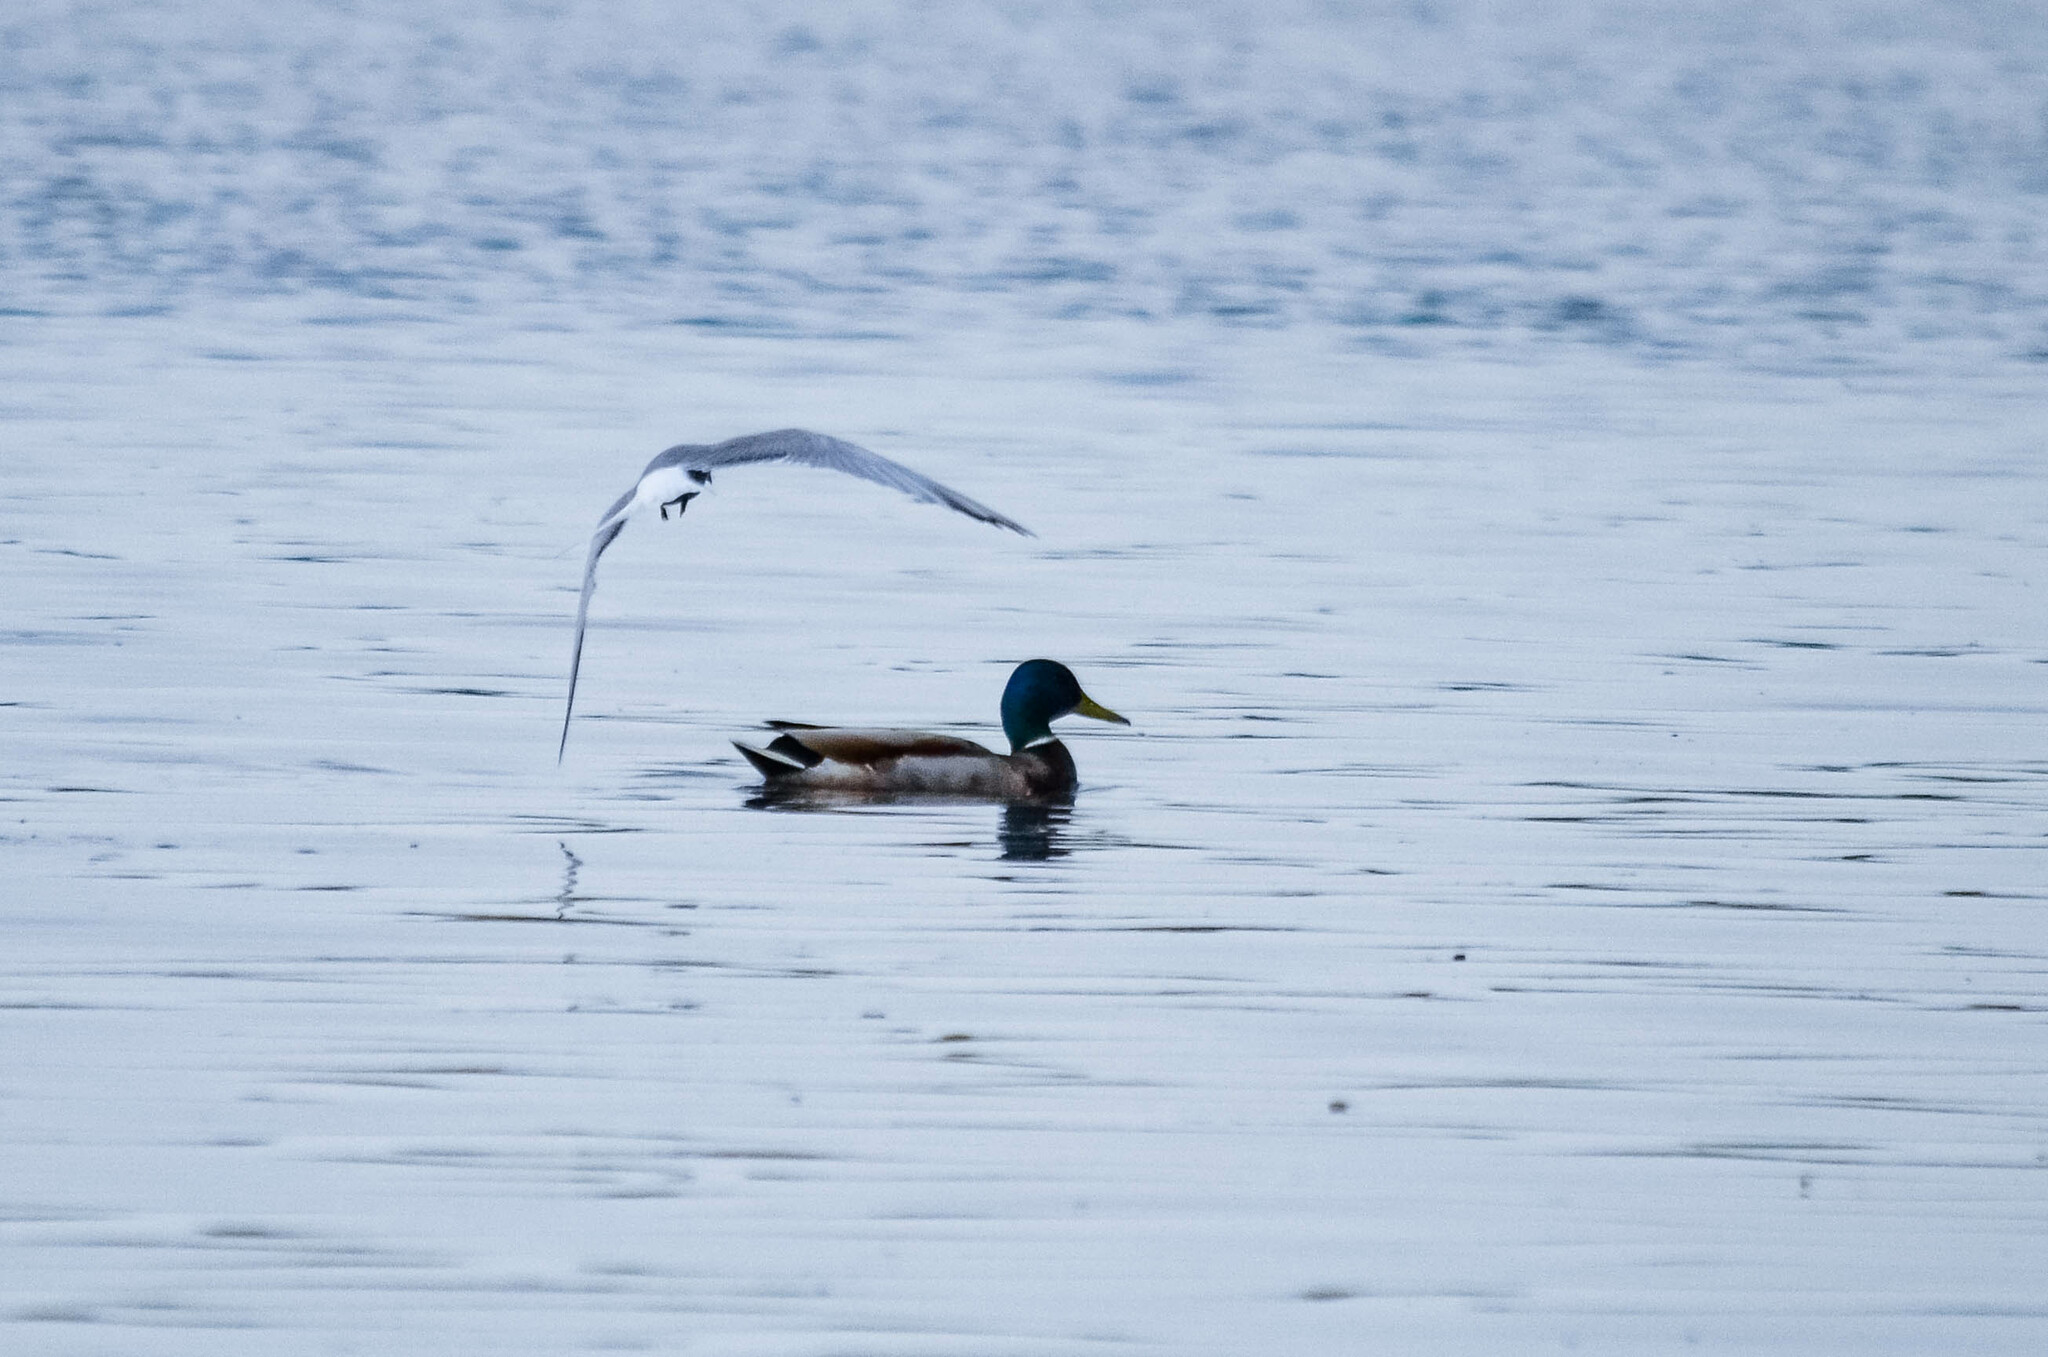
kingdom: Animalia
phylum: Chordata
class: Aves
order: Anseriformes
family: Anatidae
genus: Anas
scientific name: Anas platyrhynchos
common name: Mallard
